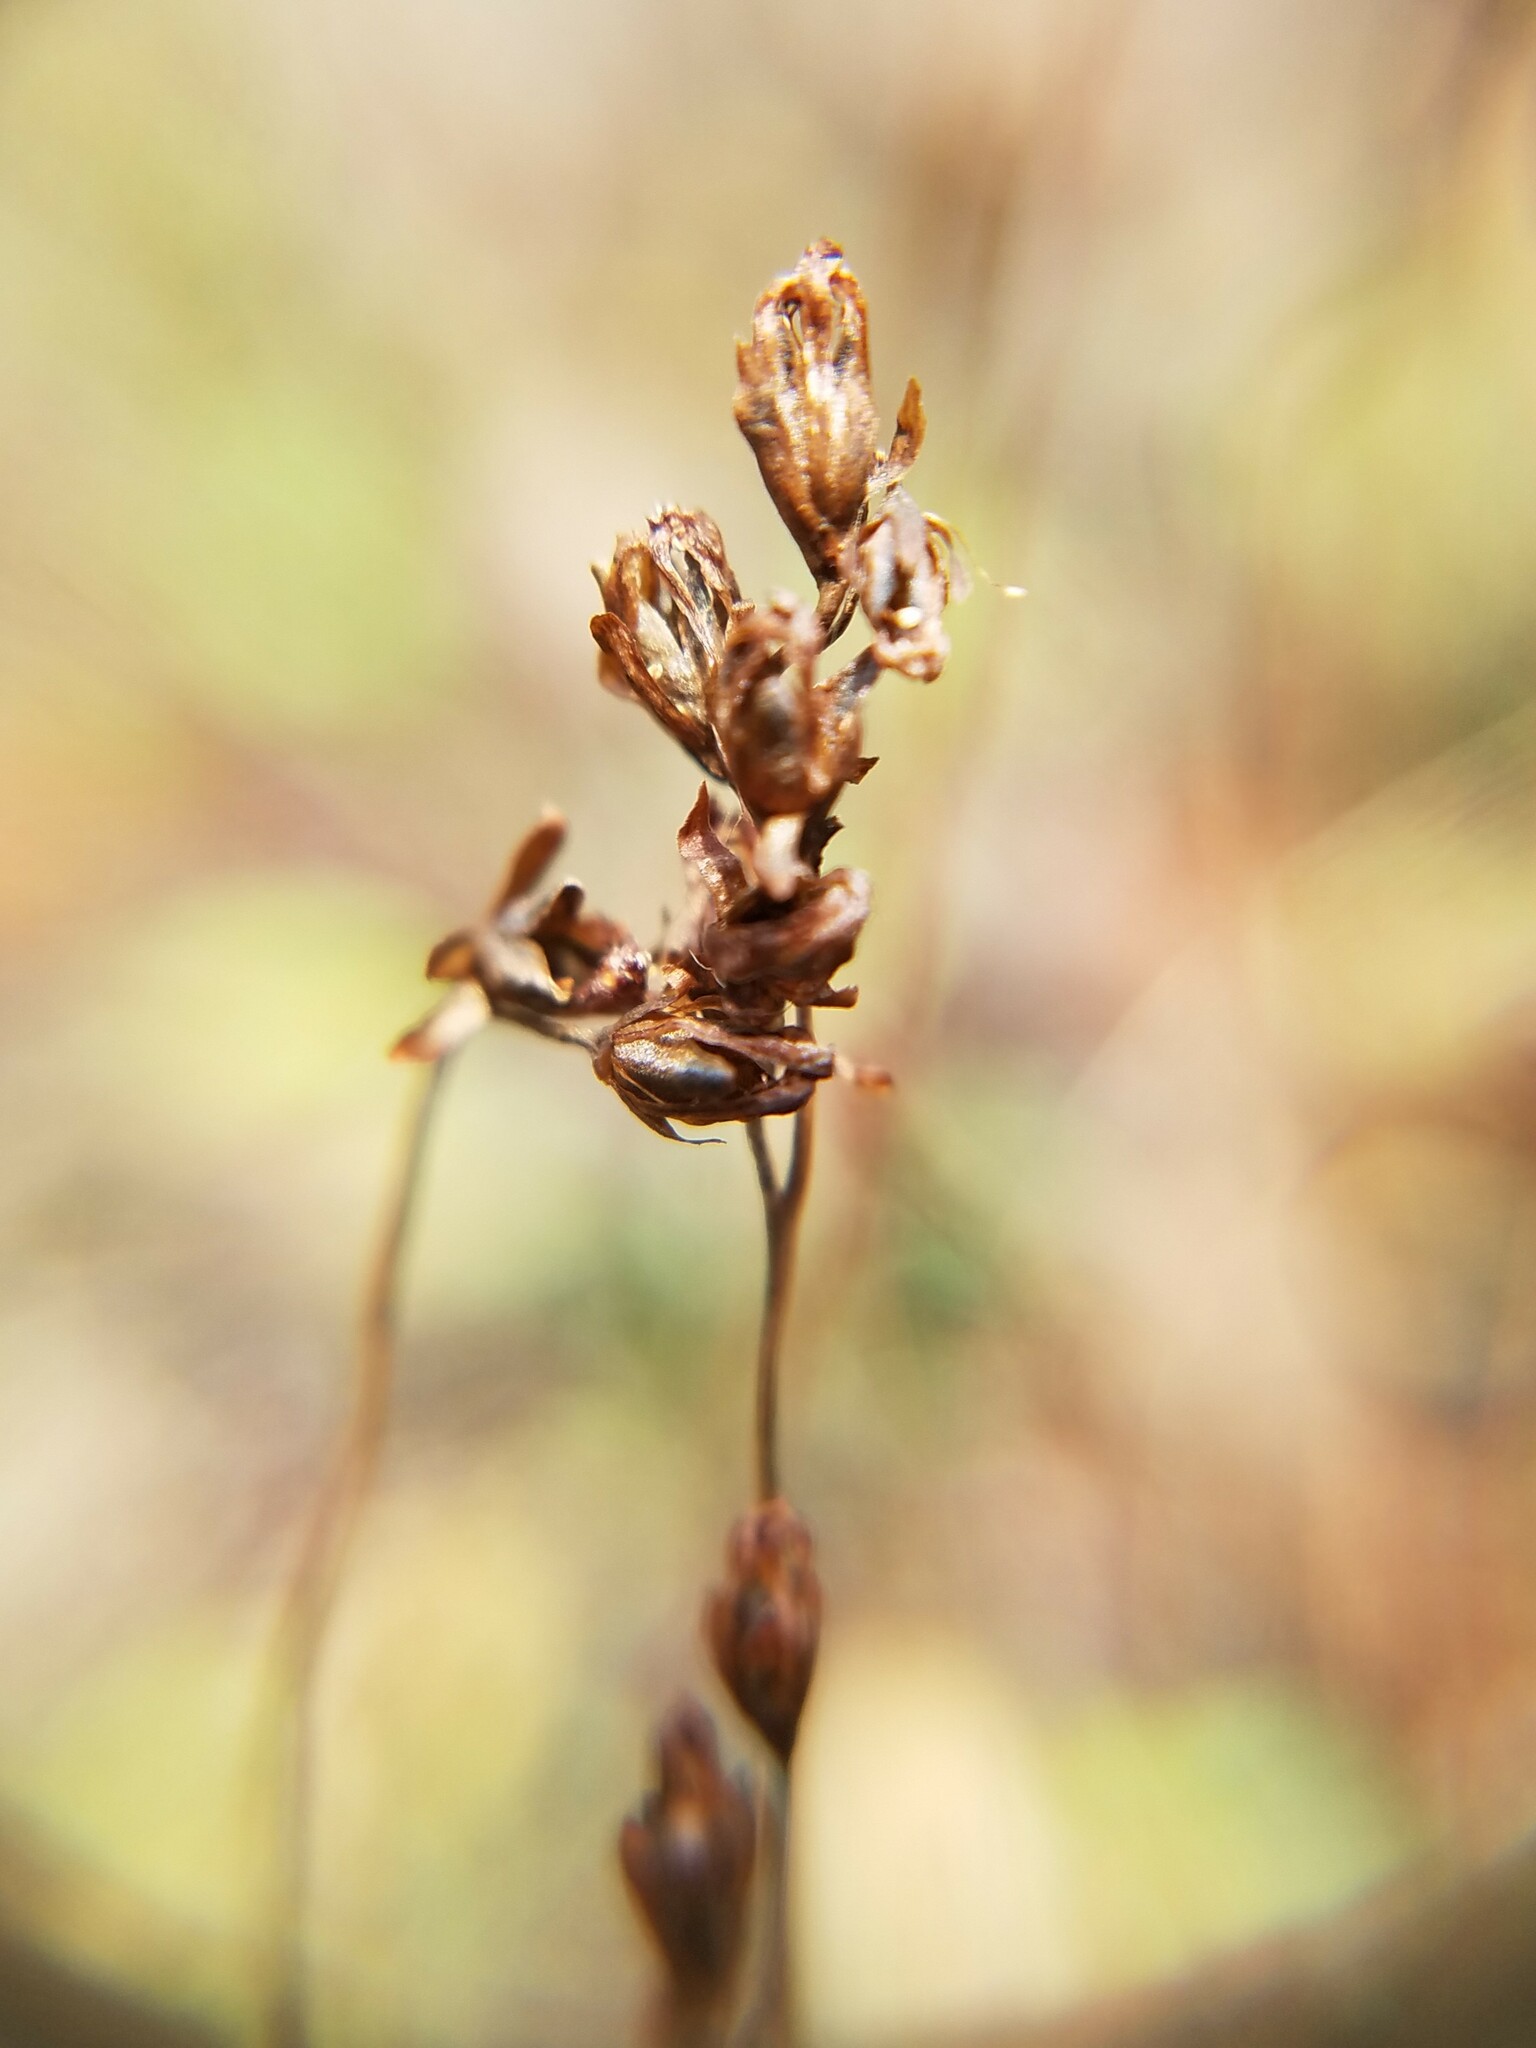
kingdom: Plantae
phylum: Tracheophyta
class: Magnoliopsida
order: Caryophyllales
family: Droseraceae
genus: Drosera
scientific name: Drosera rotundifolia
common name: Round-leaved sundew
